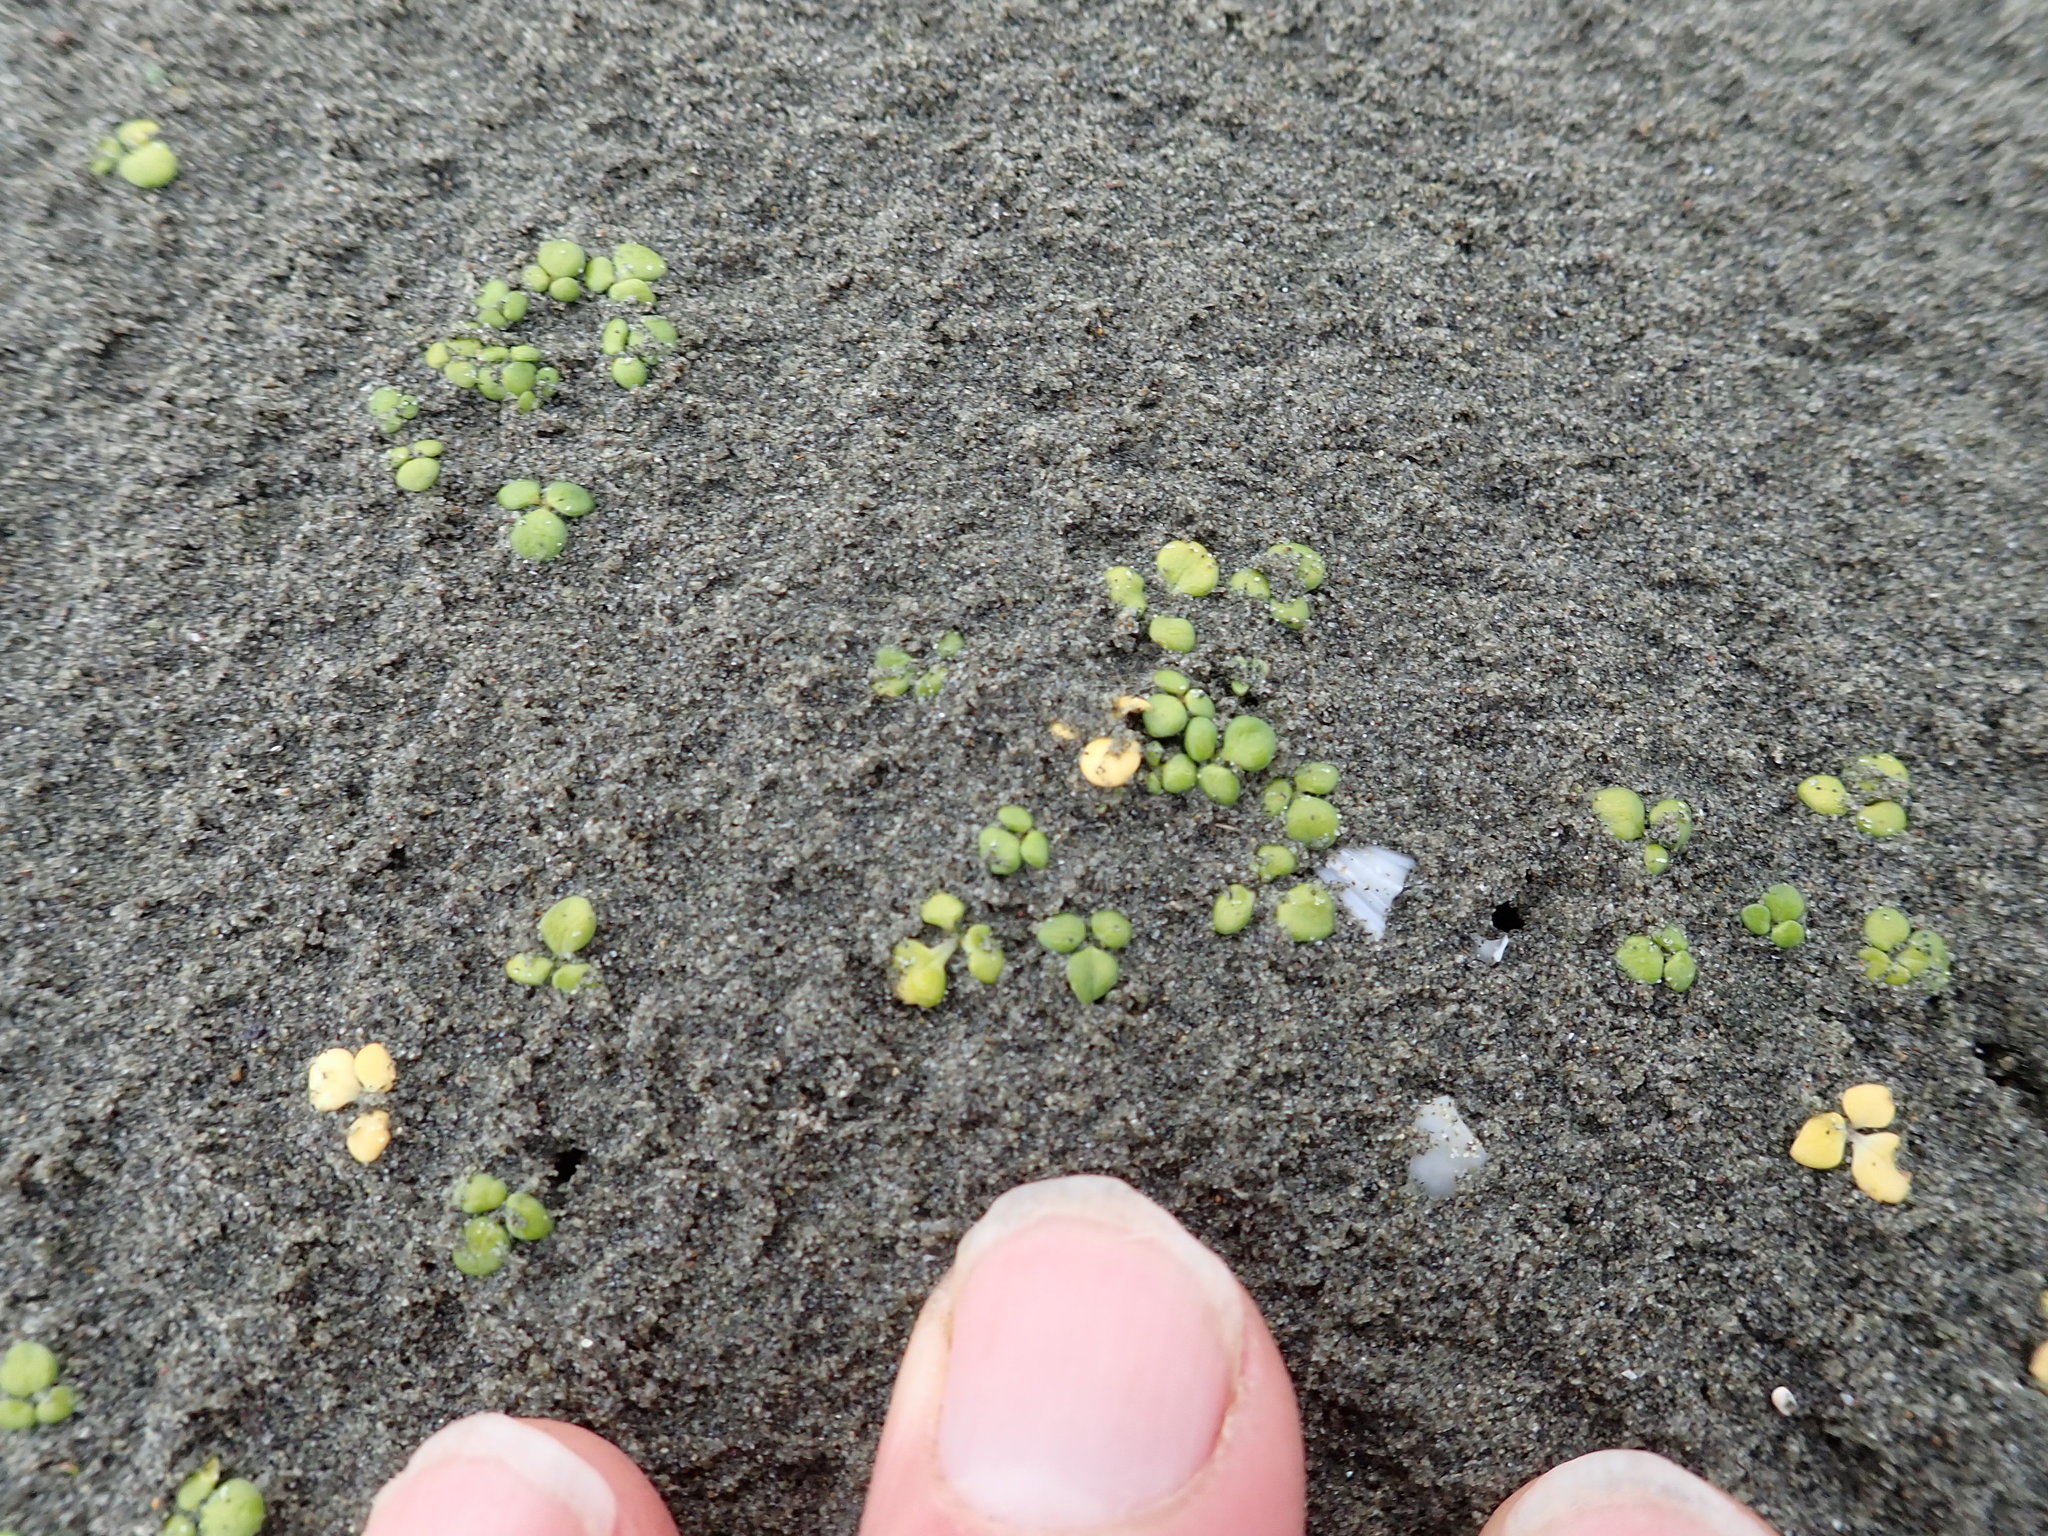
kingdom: Plantae
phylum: Tracheophyta
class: Magnoliopsida
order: Ranunculales
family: Ranunculaceae
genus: Ranunculus
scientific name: Ranunculus acaulis
